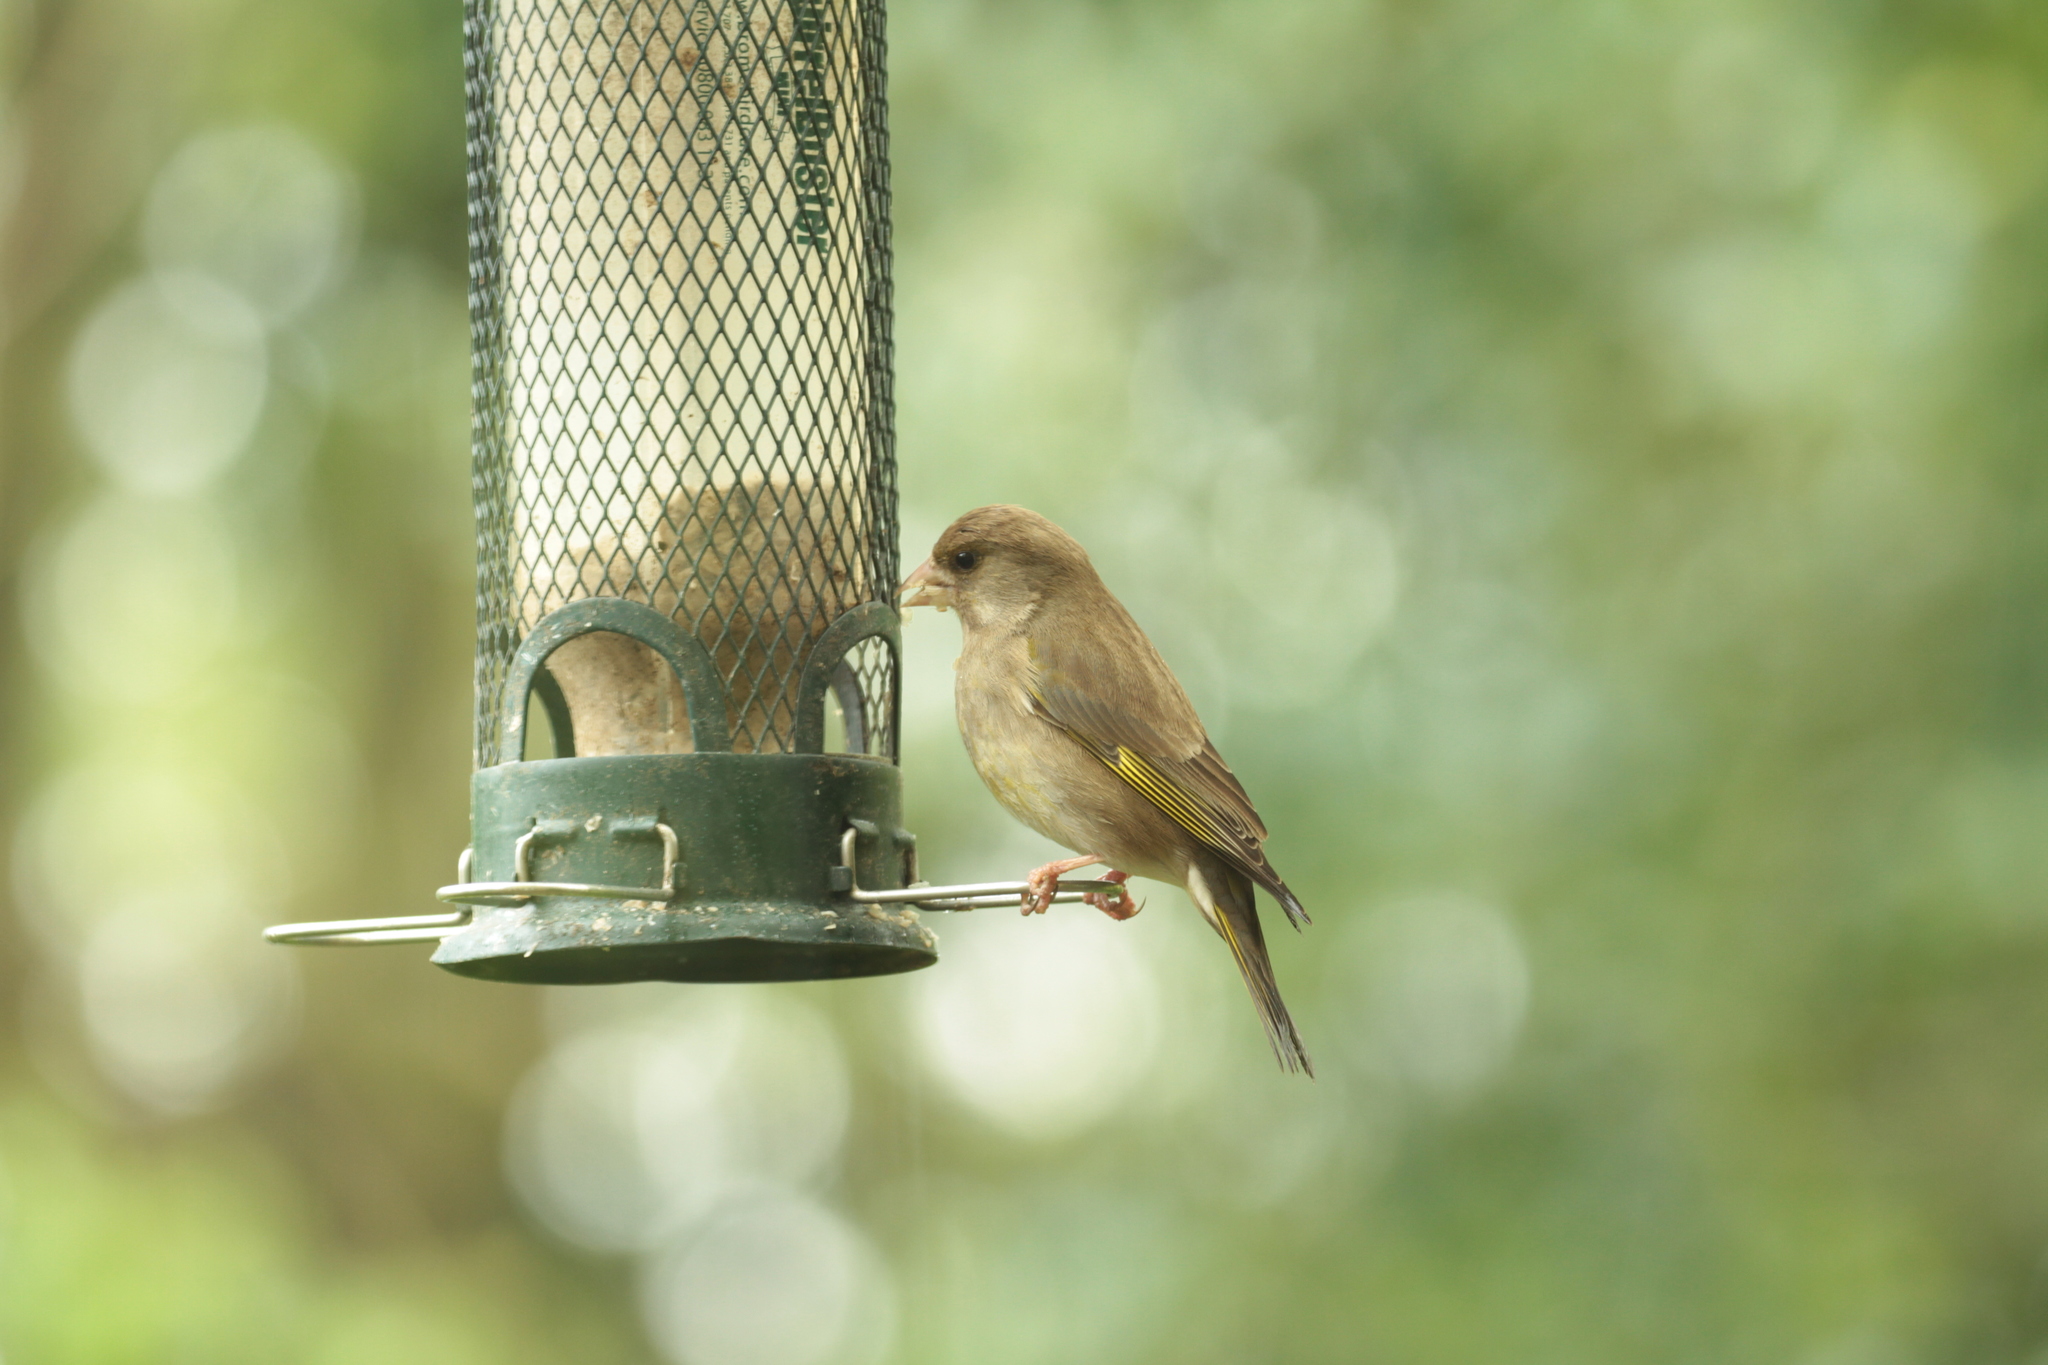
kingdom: Plantae
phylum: Tracheophyta
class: Liliopsida
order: Poales
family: Poaceae
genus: Chloris
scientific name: Chloris chloris
